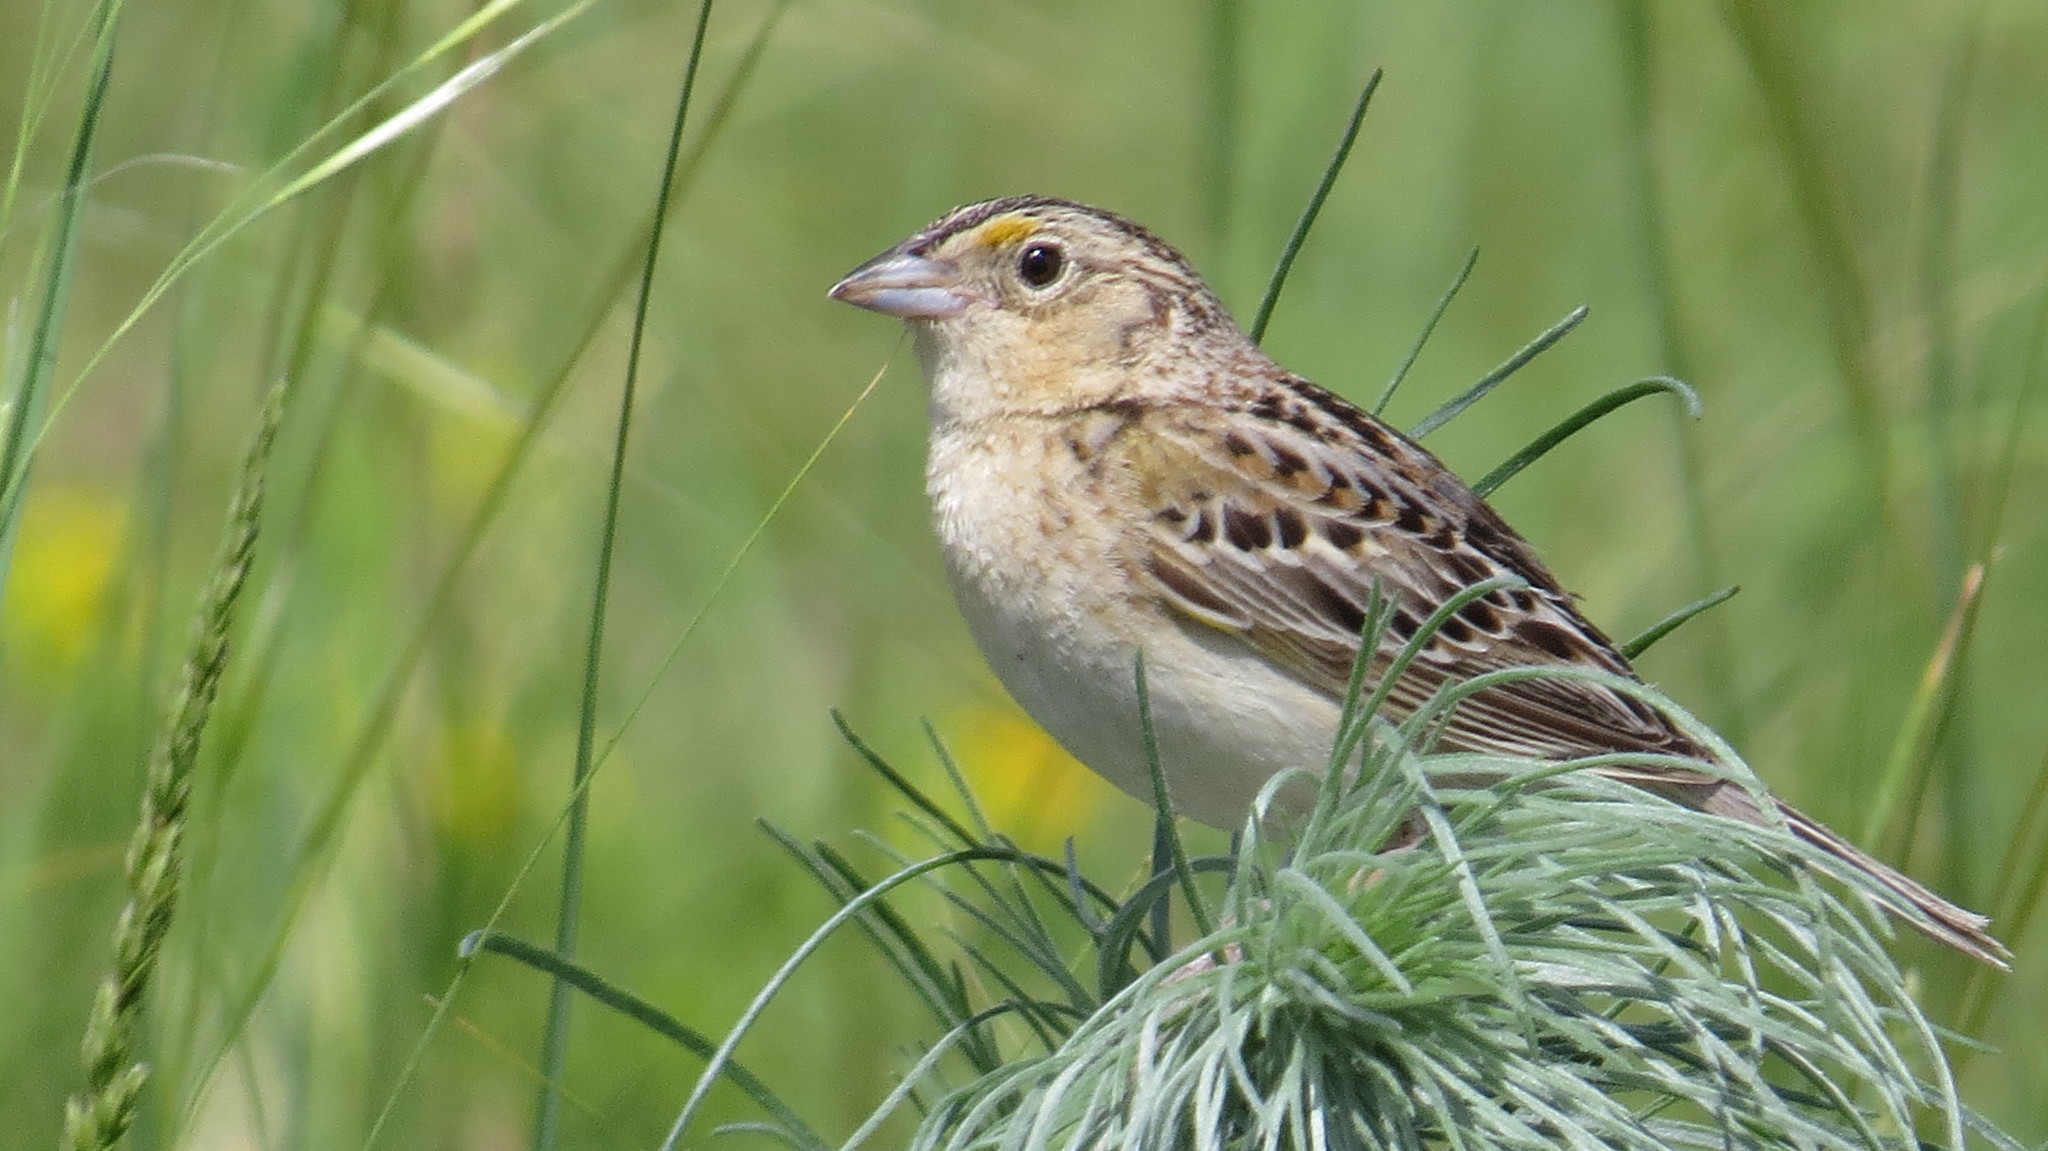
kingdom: Animalia
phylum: Chordata
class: Aves
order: Passeriformes
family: Passerellidae
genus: Ammodramus
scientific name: Ammodramus savannarum
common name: Grasshopper sparrow
